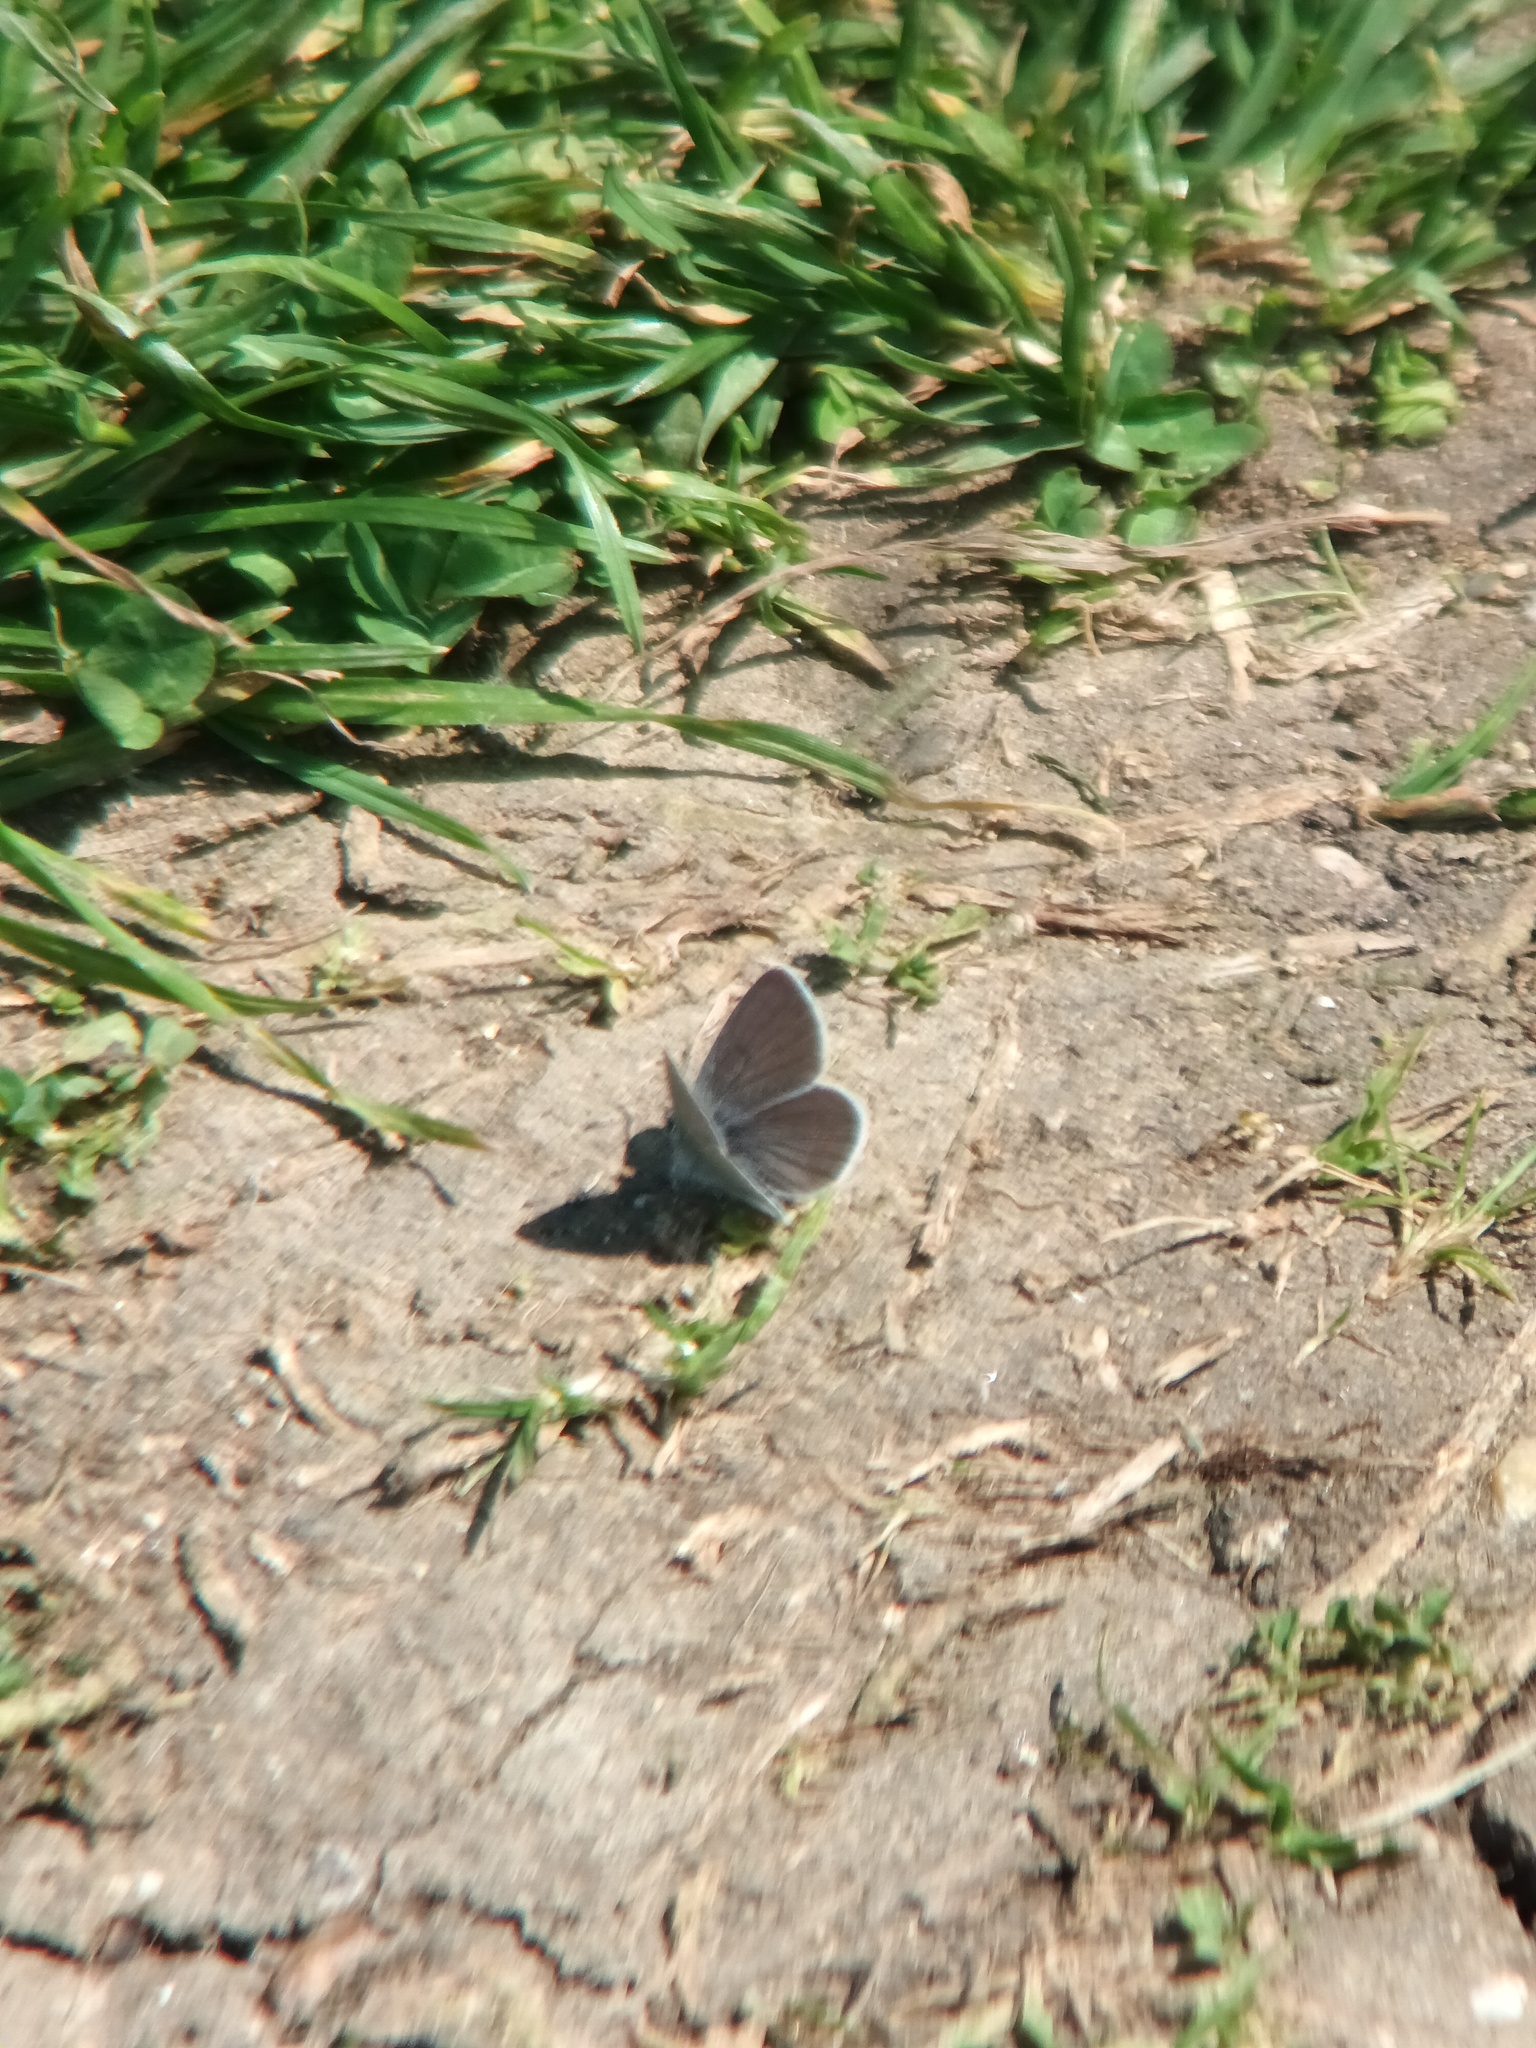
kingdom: Animalia
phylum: Arthropoda
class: Insecta
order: Lepidoptera
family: Lycaenidae
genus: Cupido
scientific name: Cupido minimus
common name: Small blue
